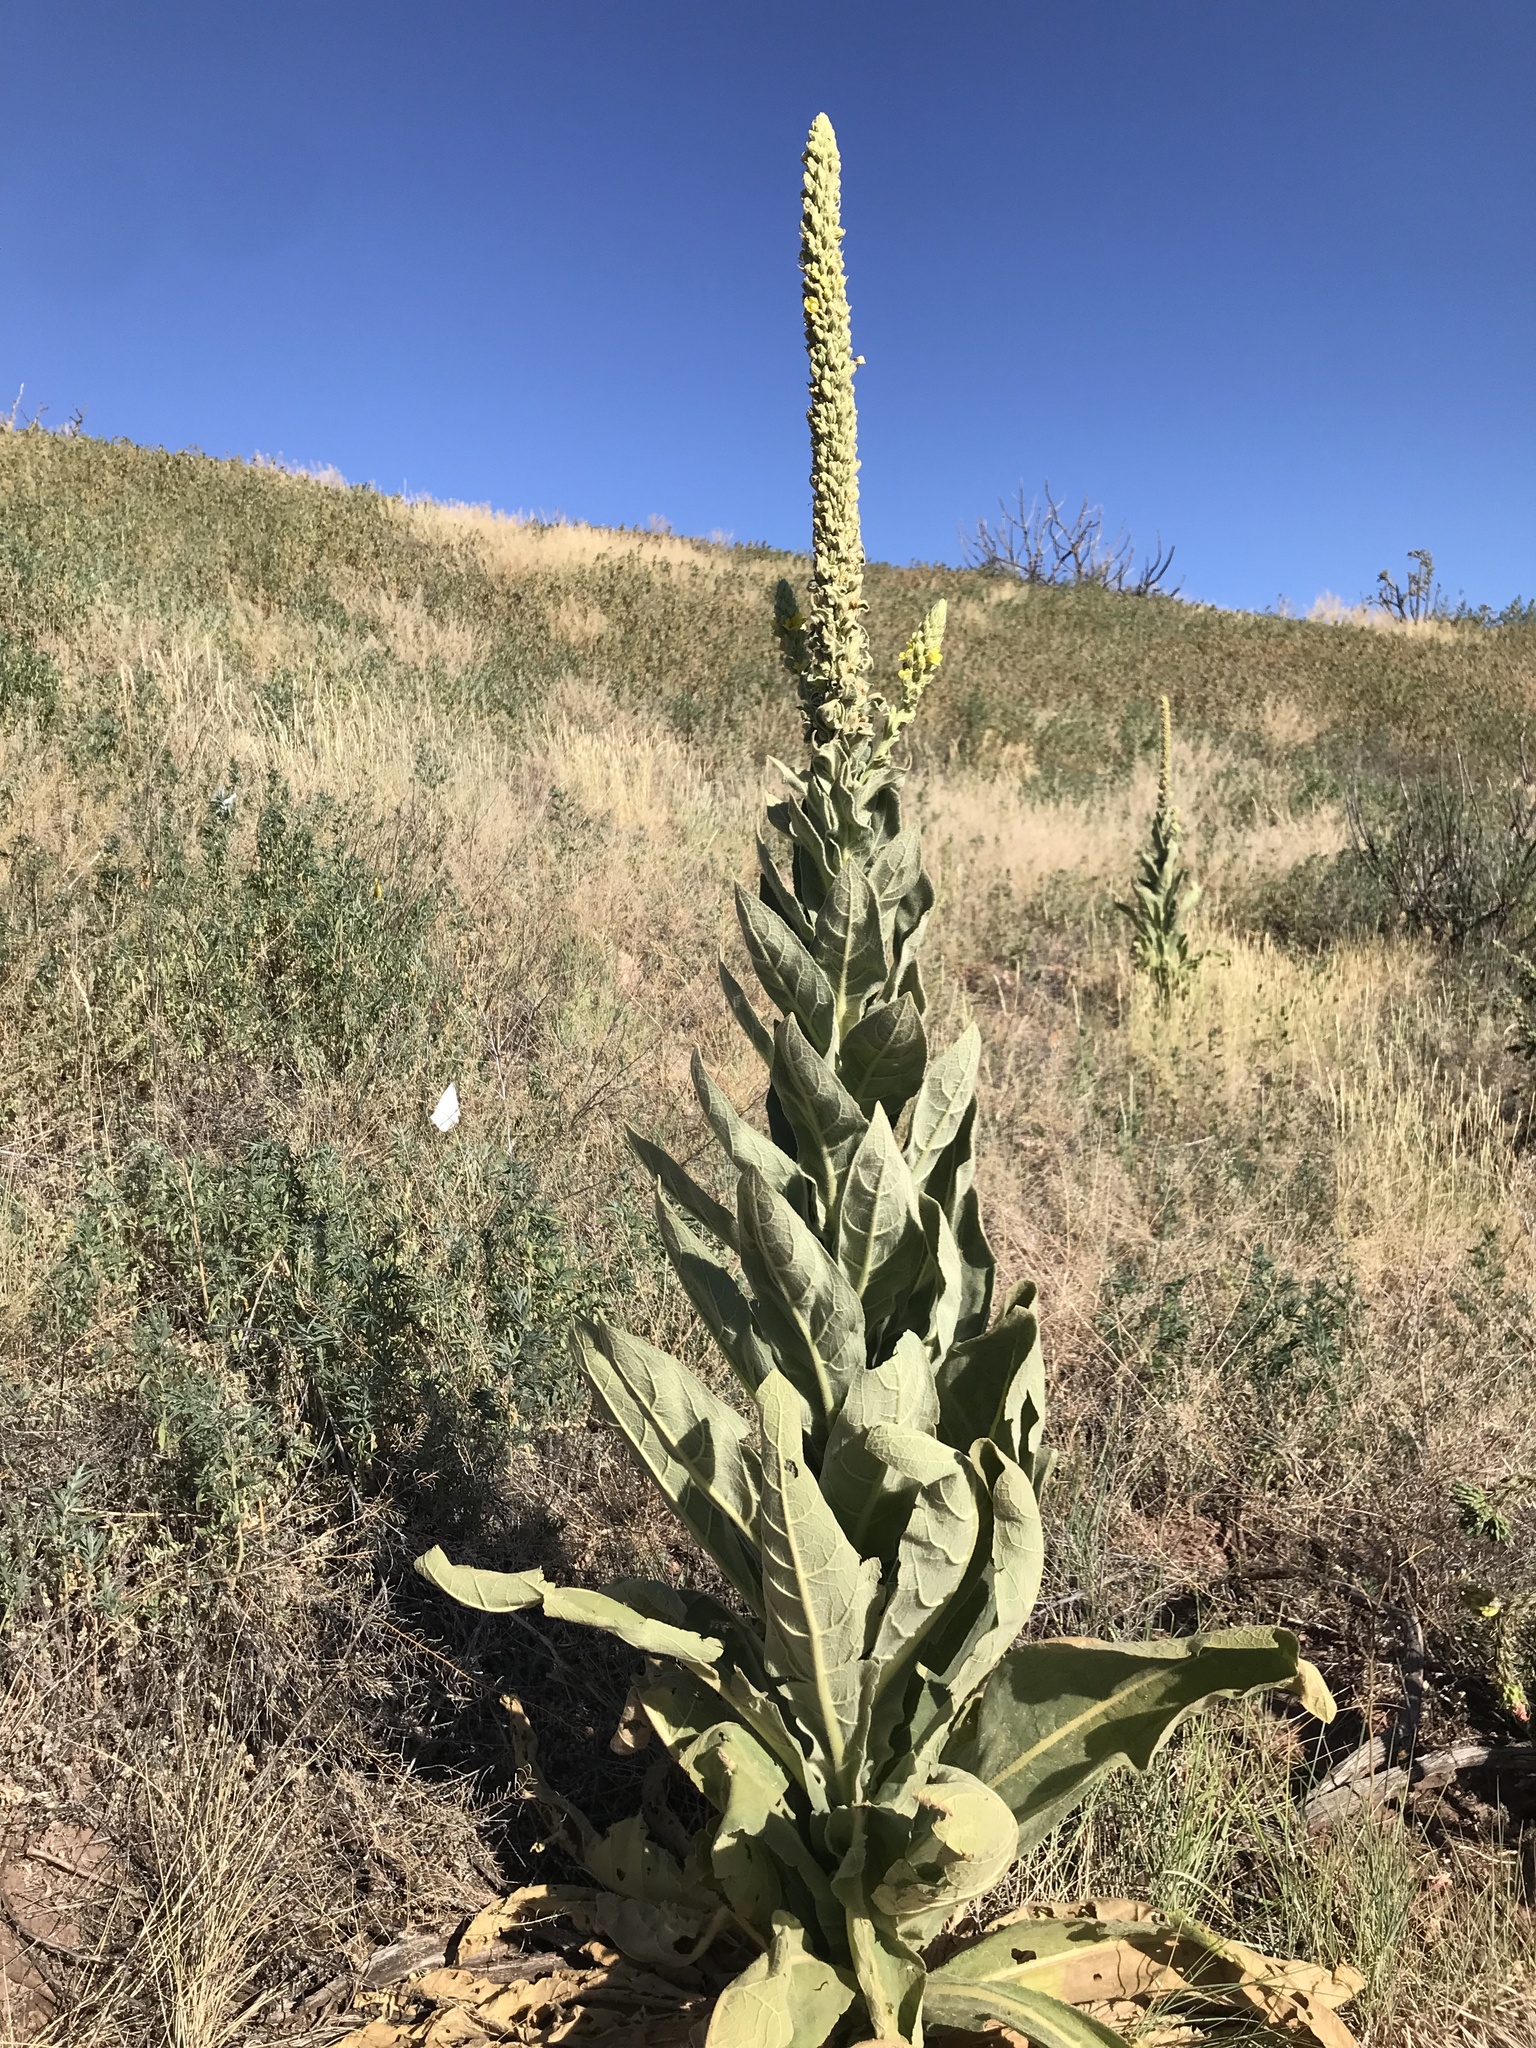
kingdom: Plantae
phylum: Tracheophyta
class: Magnoliopsida
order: Lamiales
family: Scrophulariaceae
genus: Verbascum
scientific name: Verbascum thapsus
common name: Common mullein
